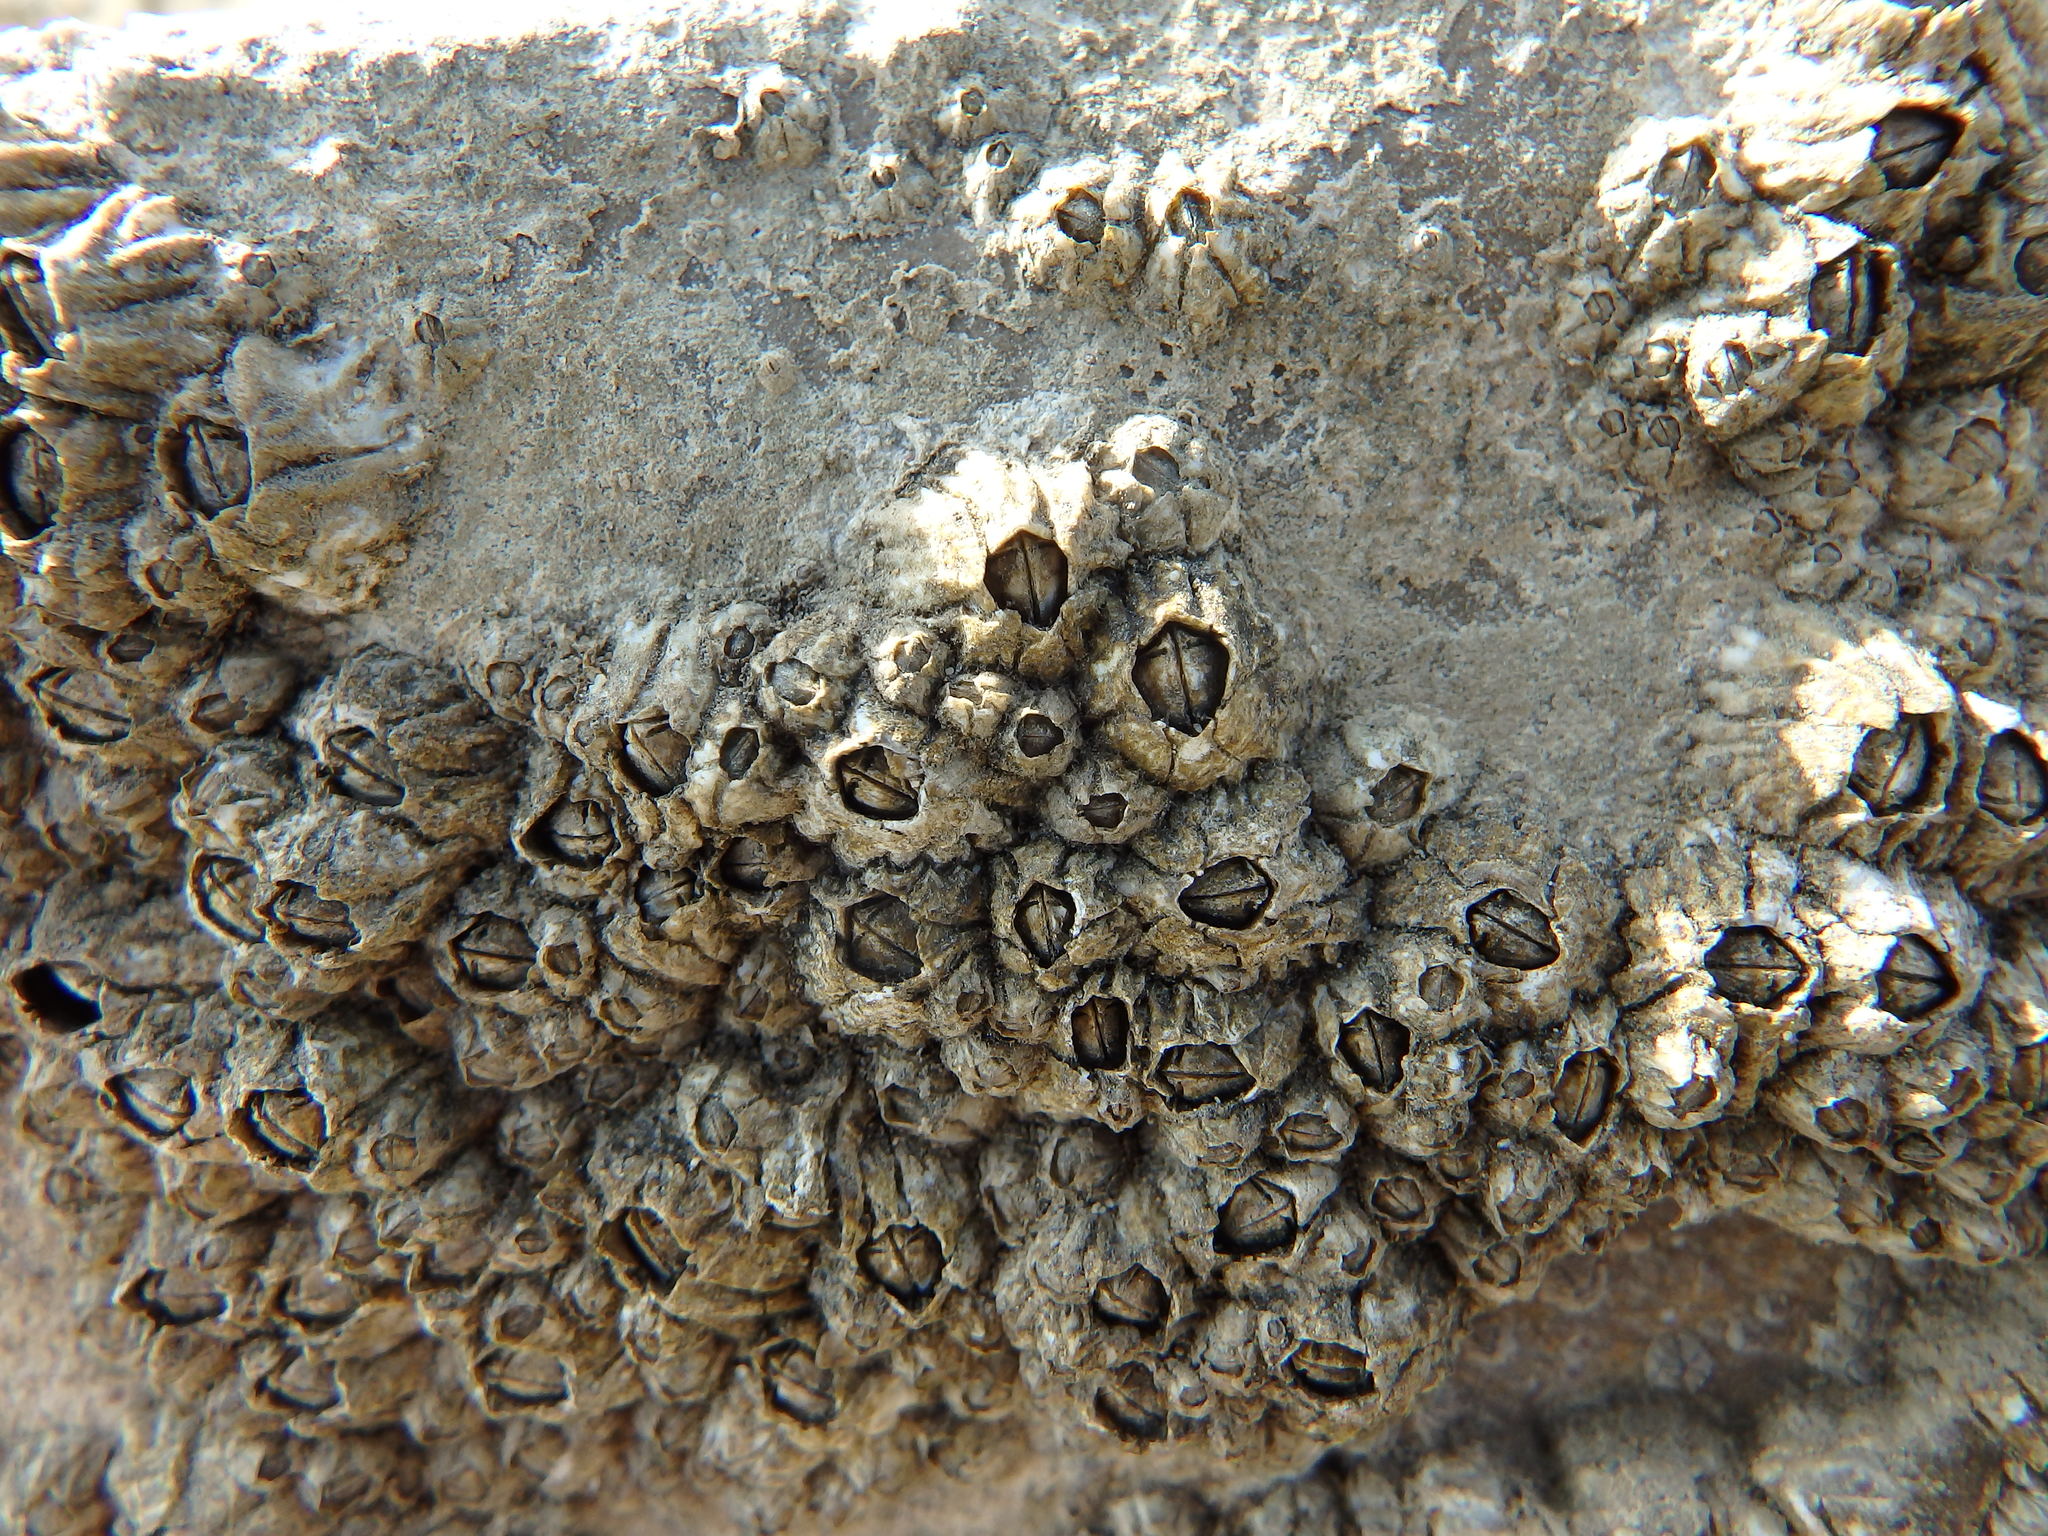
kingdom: Animalia
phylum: Arthropoda
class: Maxillopoda
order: Sessilia
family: Chthamalidae
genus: Chthamalus
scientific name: Chthamalus montagui
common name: Montagu's stellate barnacle
